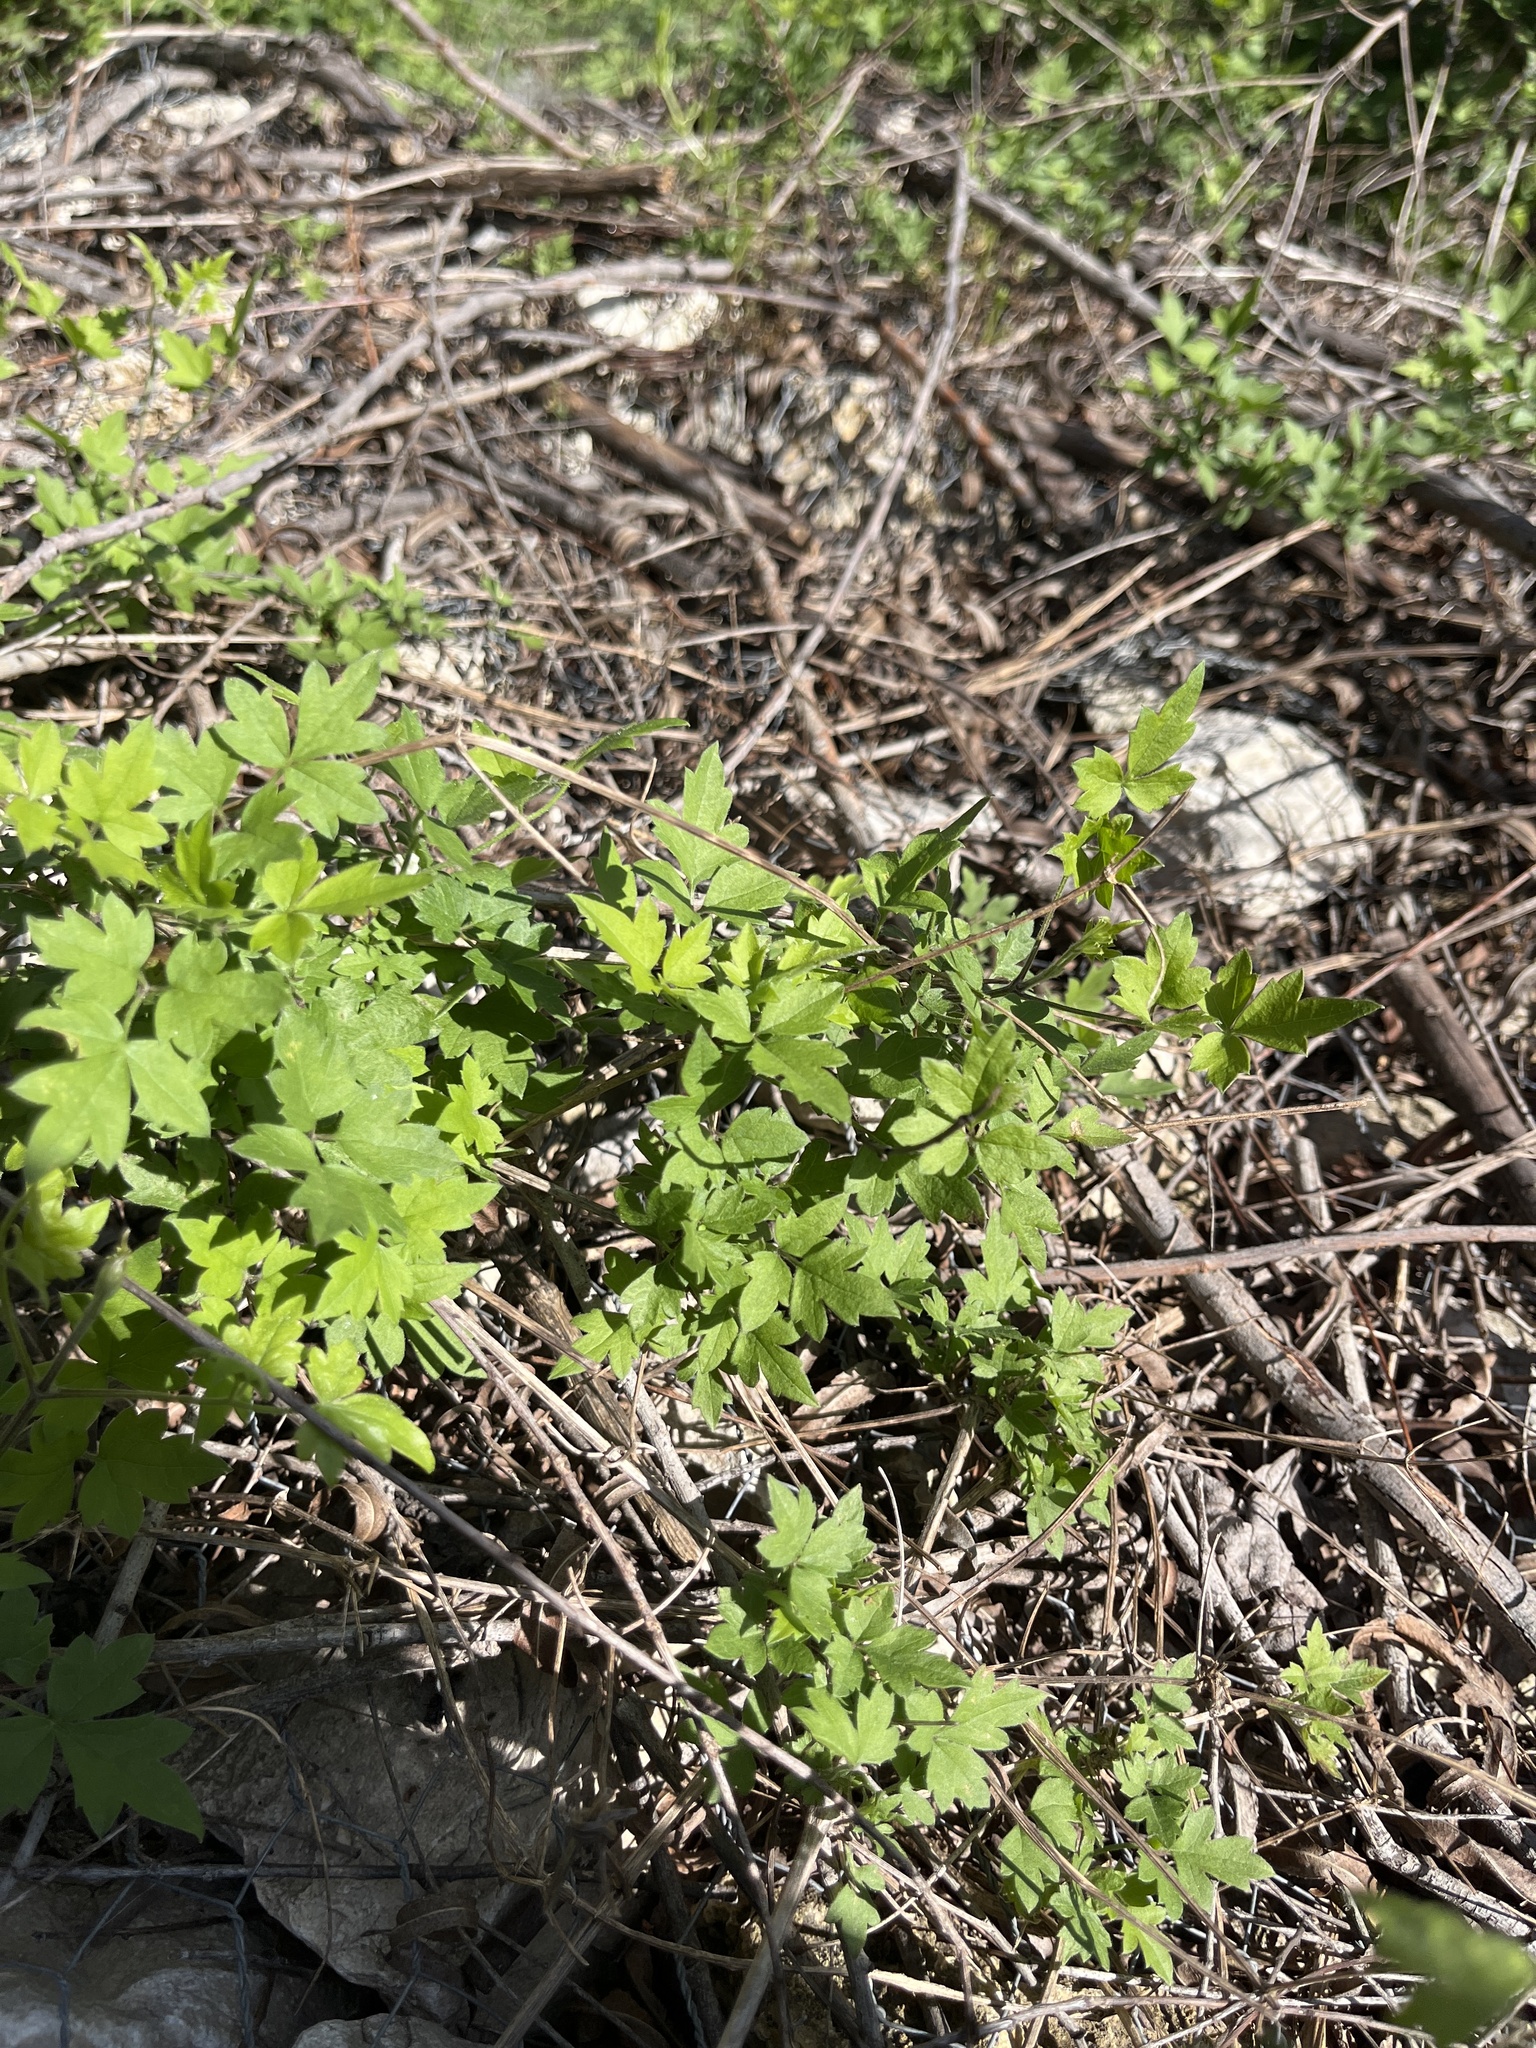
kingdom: Plantae
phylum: Tracheophyta
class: Magnoliopsida
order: Ranunculales
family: Ranunculaceae
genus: Clematis
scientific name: Clematis drummondii
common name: Texas virgin's bower
